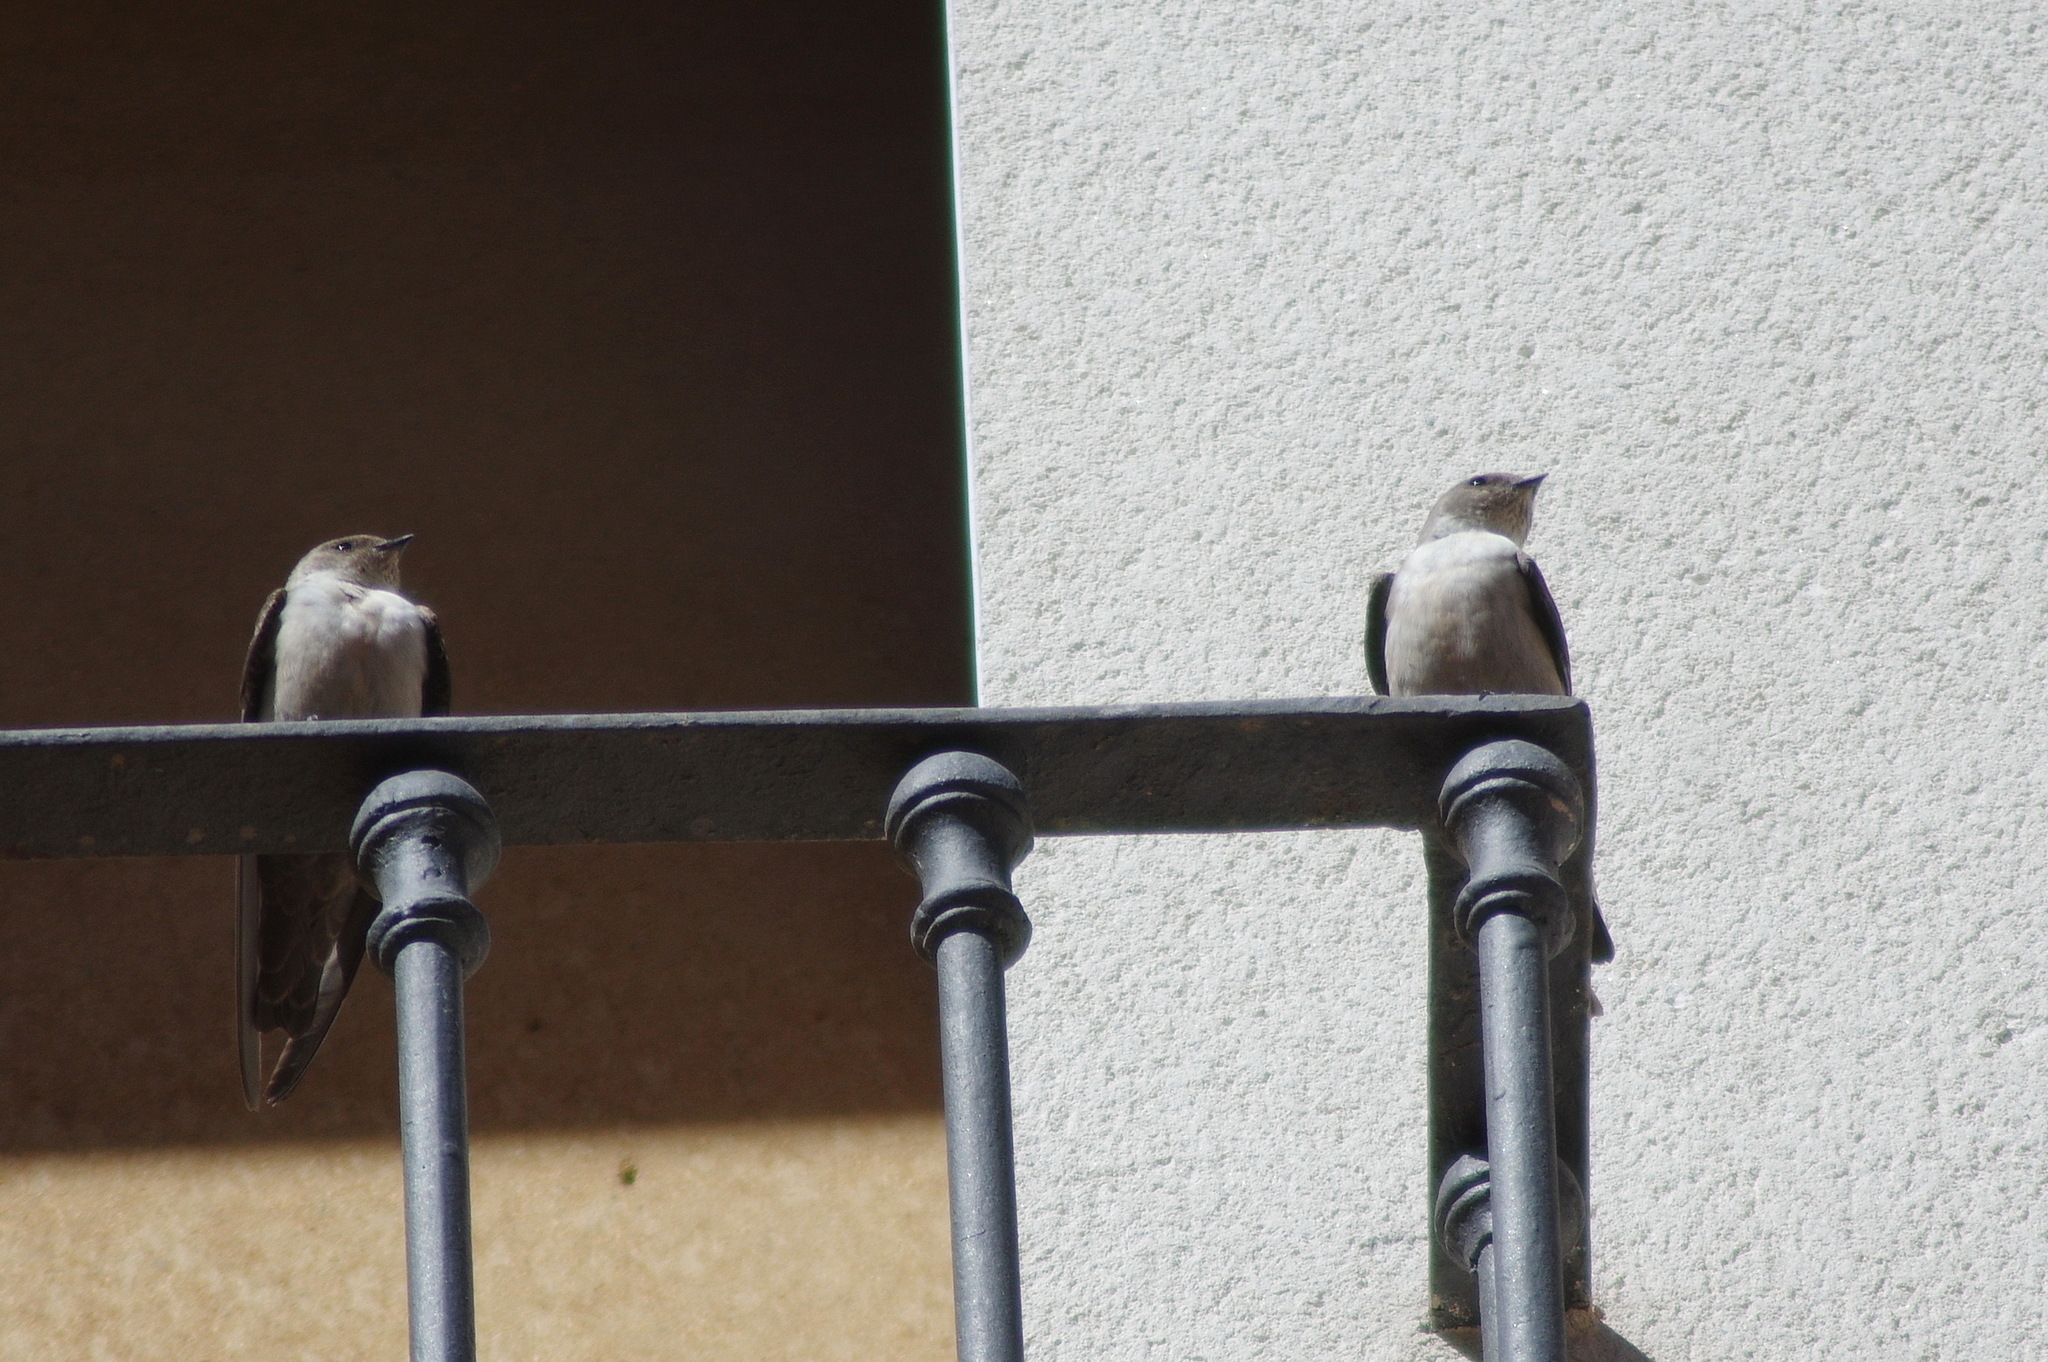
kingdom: Animalia
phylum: Chordata
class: Aves
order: Passeriformes
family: Hirundinidae
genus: Ptyonoprogne
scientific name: Ptyonoprogne rupestris
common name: Eurasian crag martin
